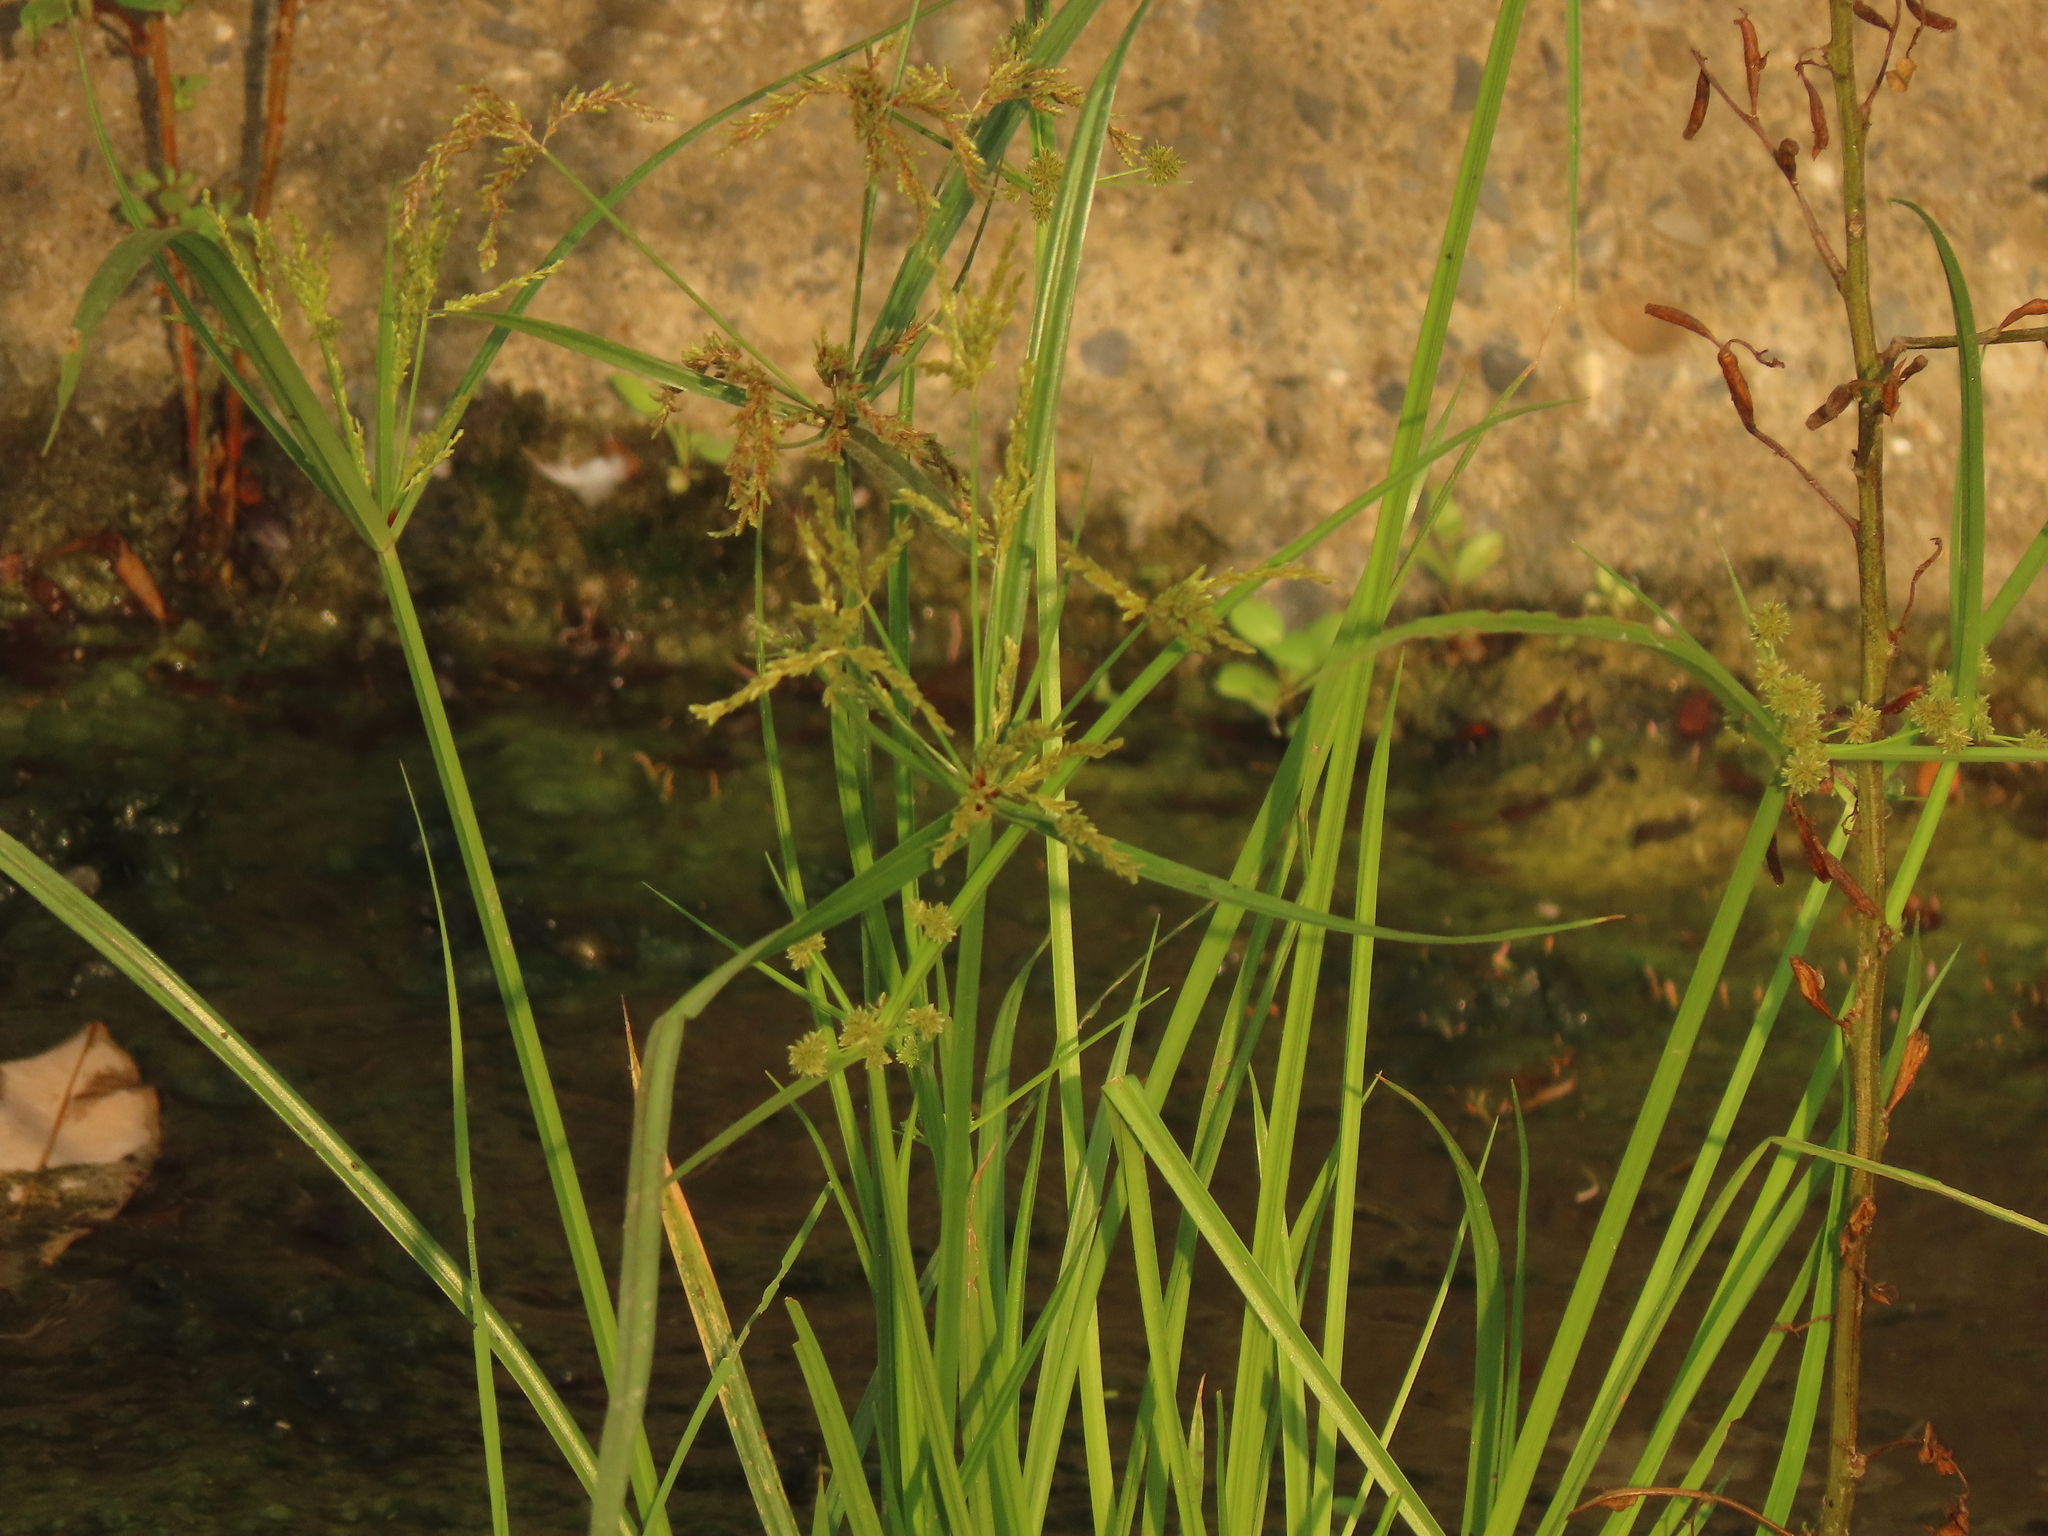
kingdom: Plantae
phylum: Tracheophyta
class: Liliopsida
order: Poales
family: Cyperaceae
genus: Cyperus
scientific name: Cyperus iria
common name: Ricefield flatsedge
